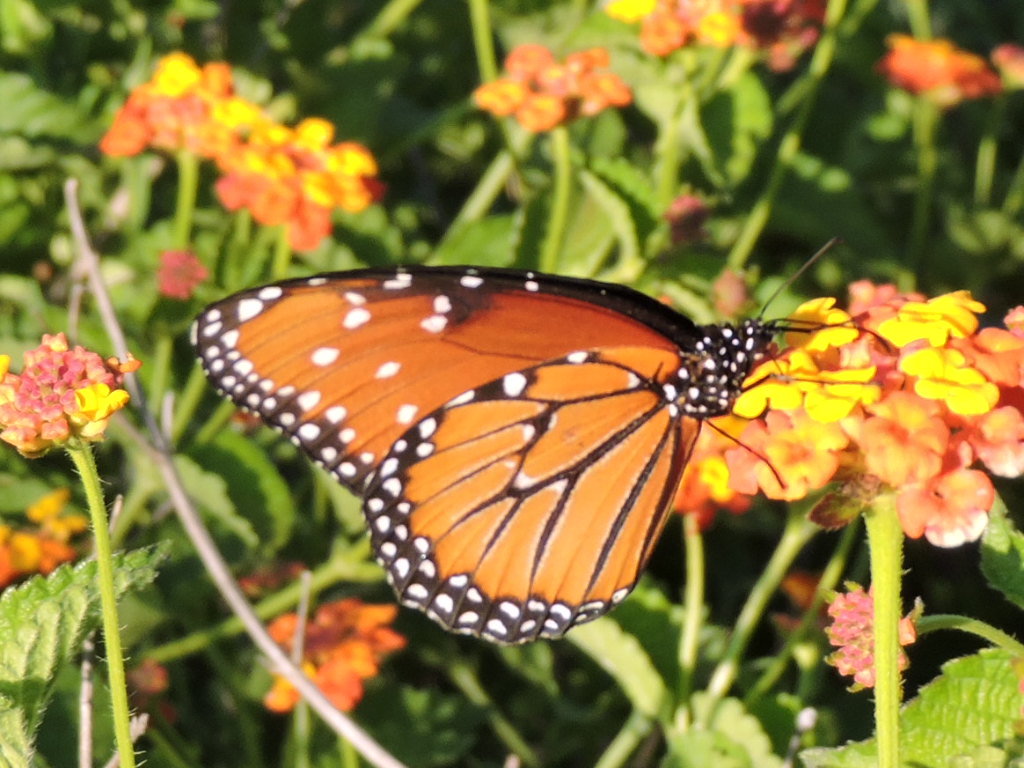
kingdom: Animalia
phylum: Arthropoda
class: Insecta
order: Lepidoptera
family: Nymphalidae
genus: Danaus
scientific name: Danaus gilippus
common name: Queen
